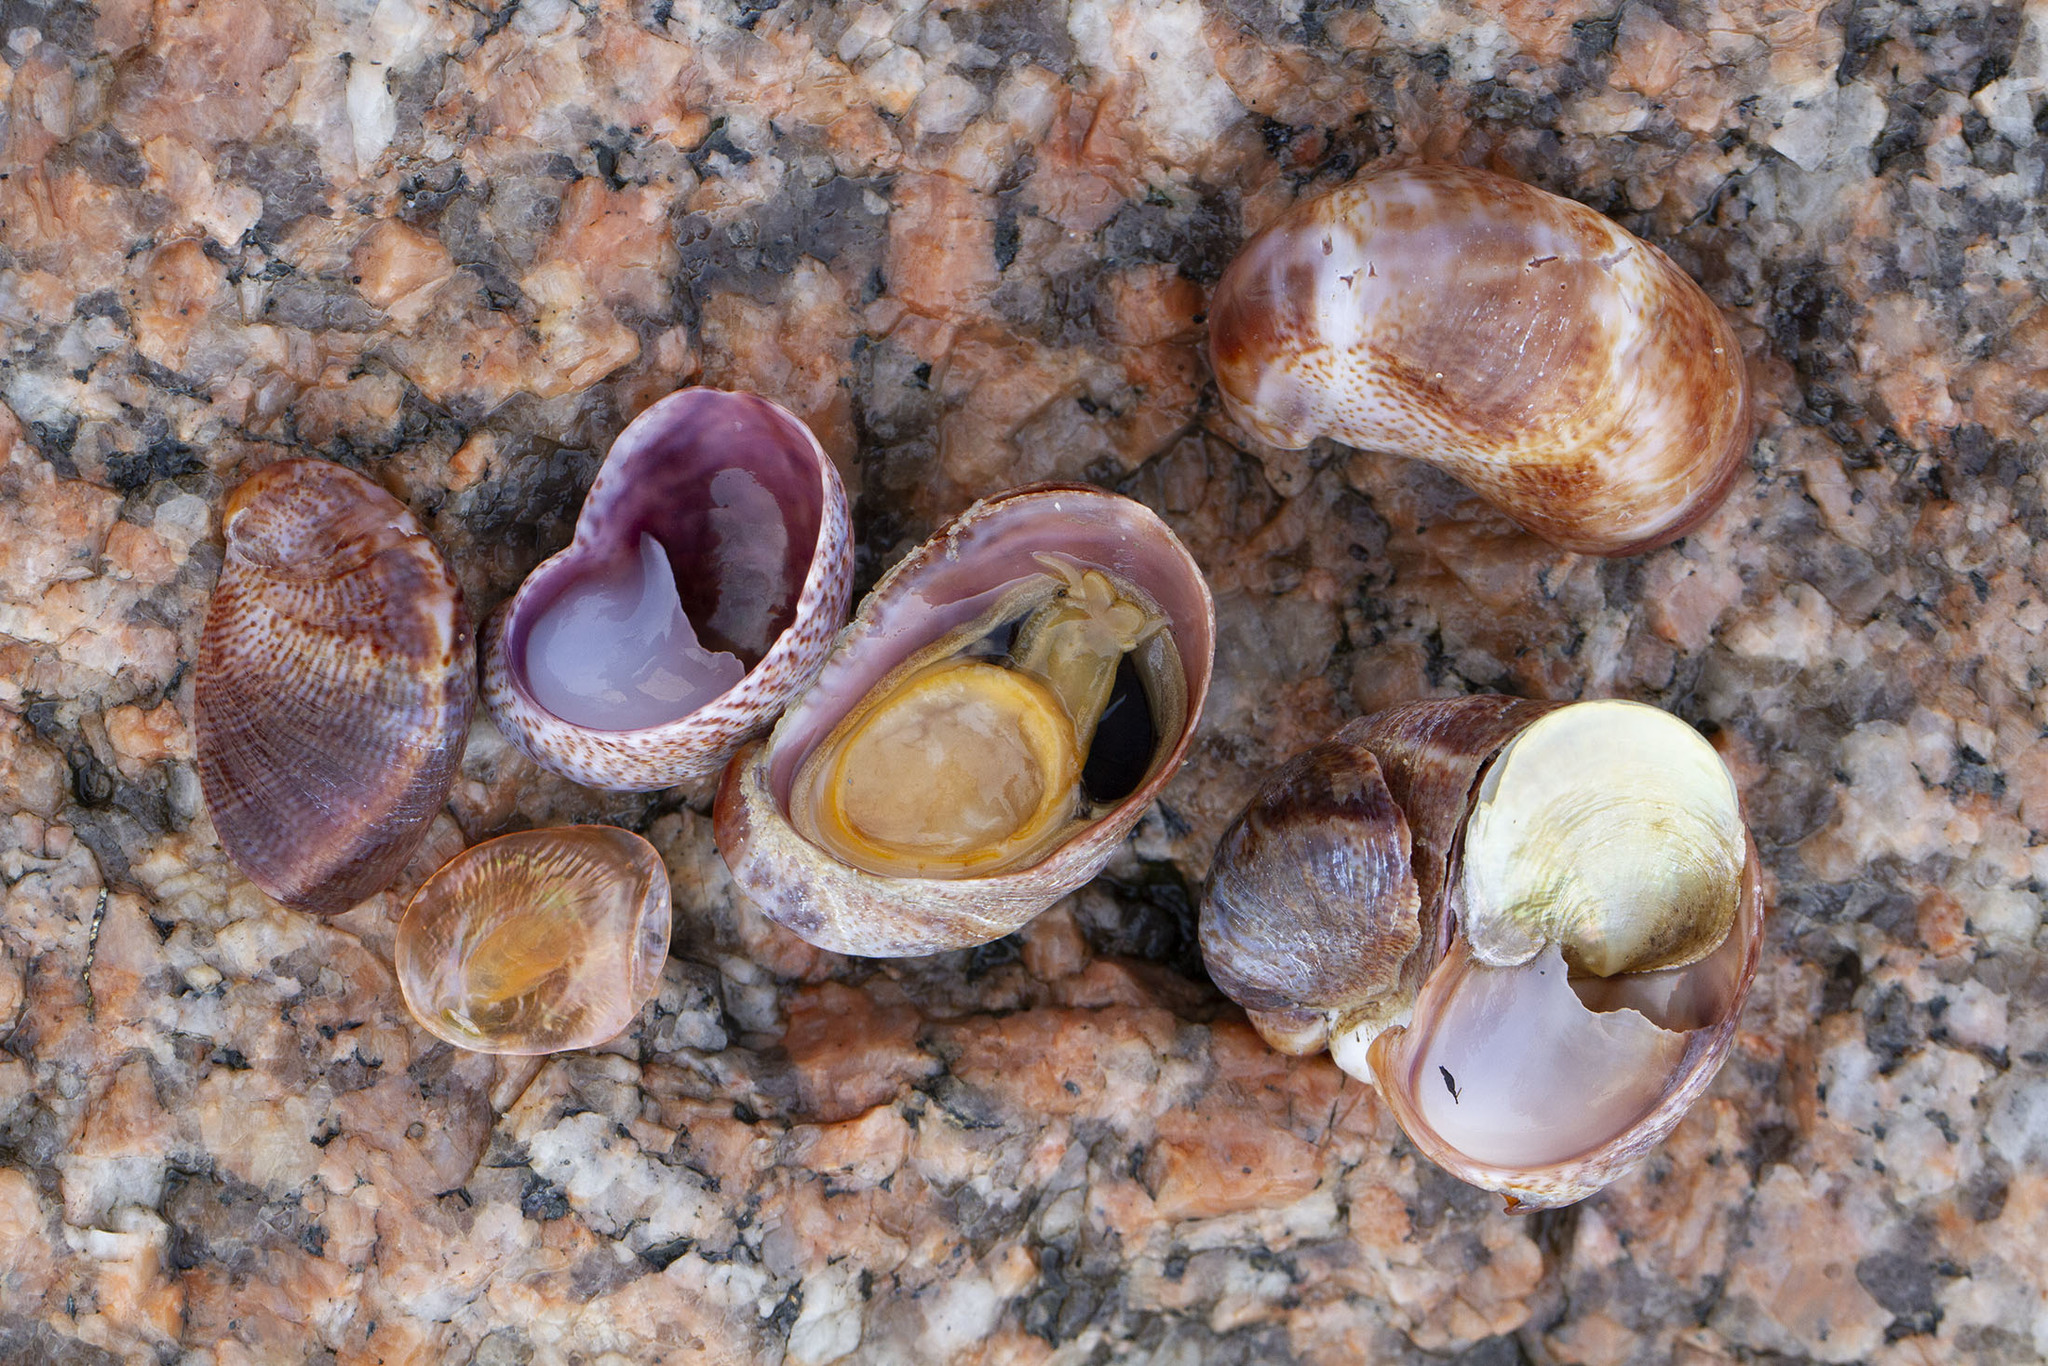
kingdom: Animalia
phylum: Mollusca
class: Gastropoda
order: Littorinimorpha
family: Calyptraeidae
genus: Crepidula
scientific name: Crepidula fornicata
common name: Slipper limpet
